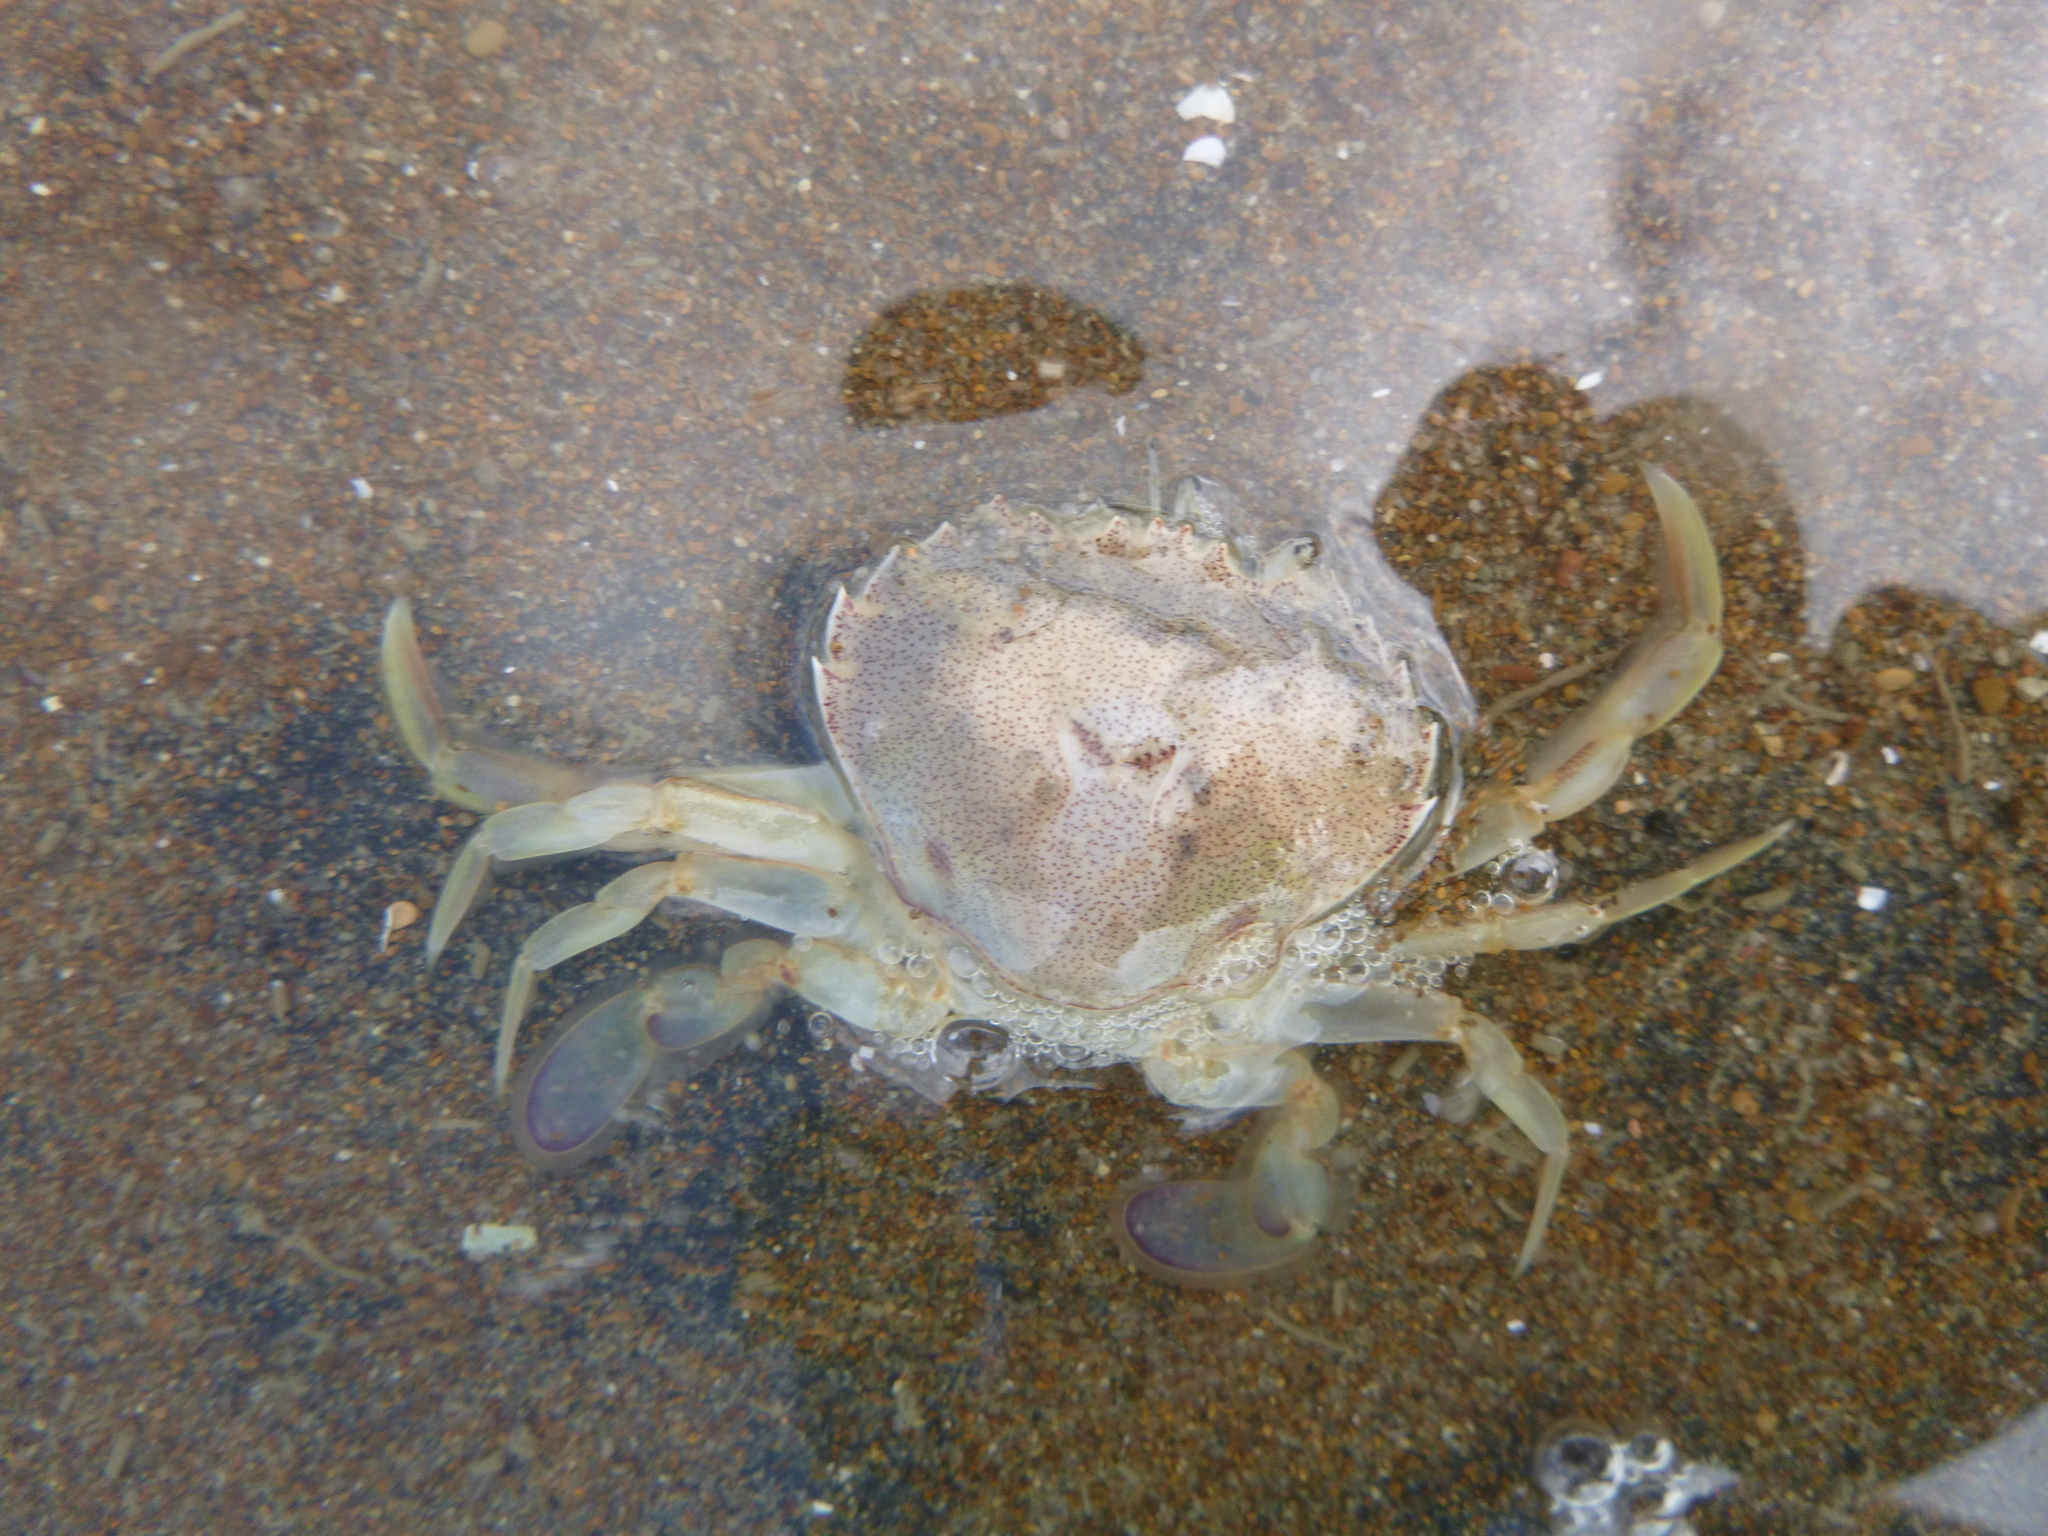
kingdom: Animalia
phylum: Arthropoda
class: Malacostraca
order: Decapoda
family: Ovalipidae
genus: Ovalipes
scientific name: Ovalipes catharus
